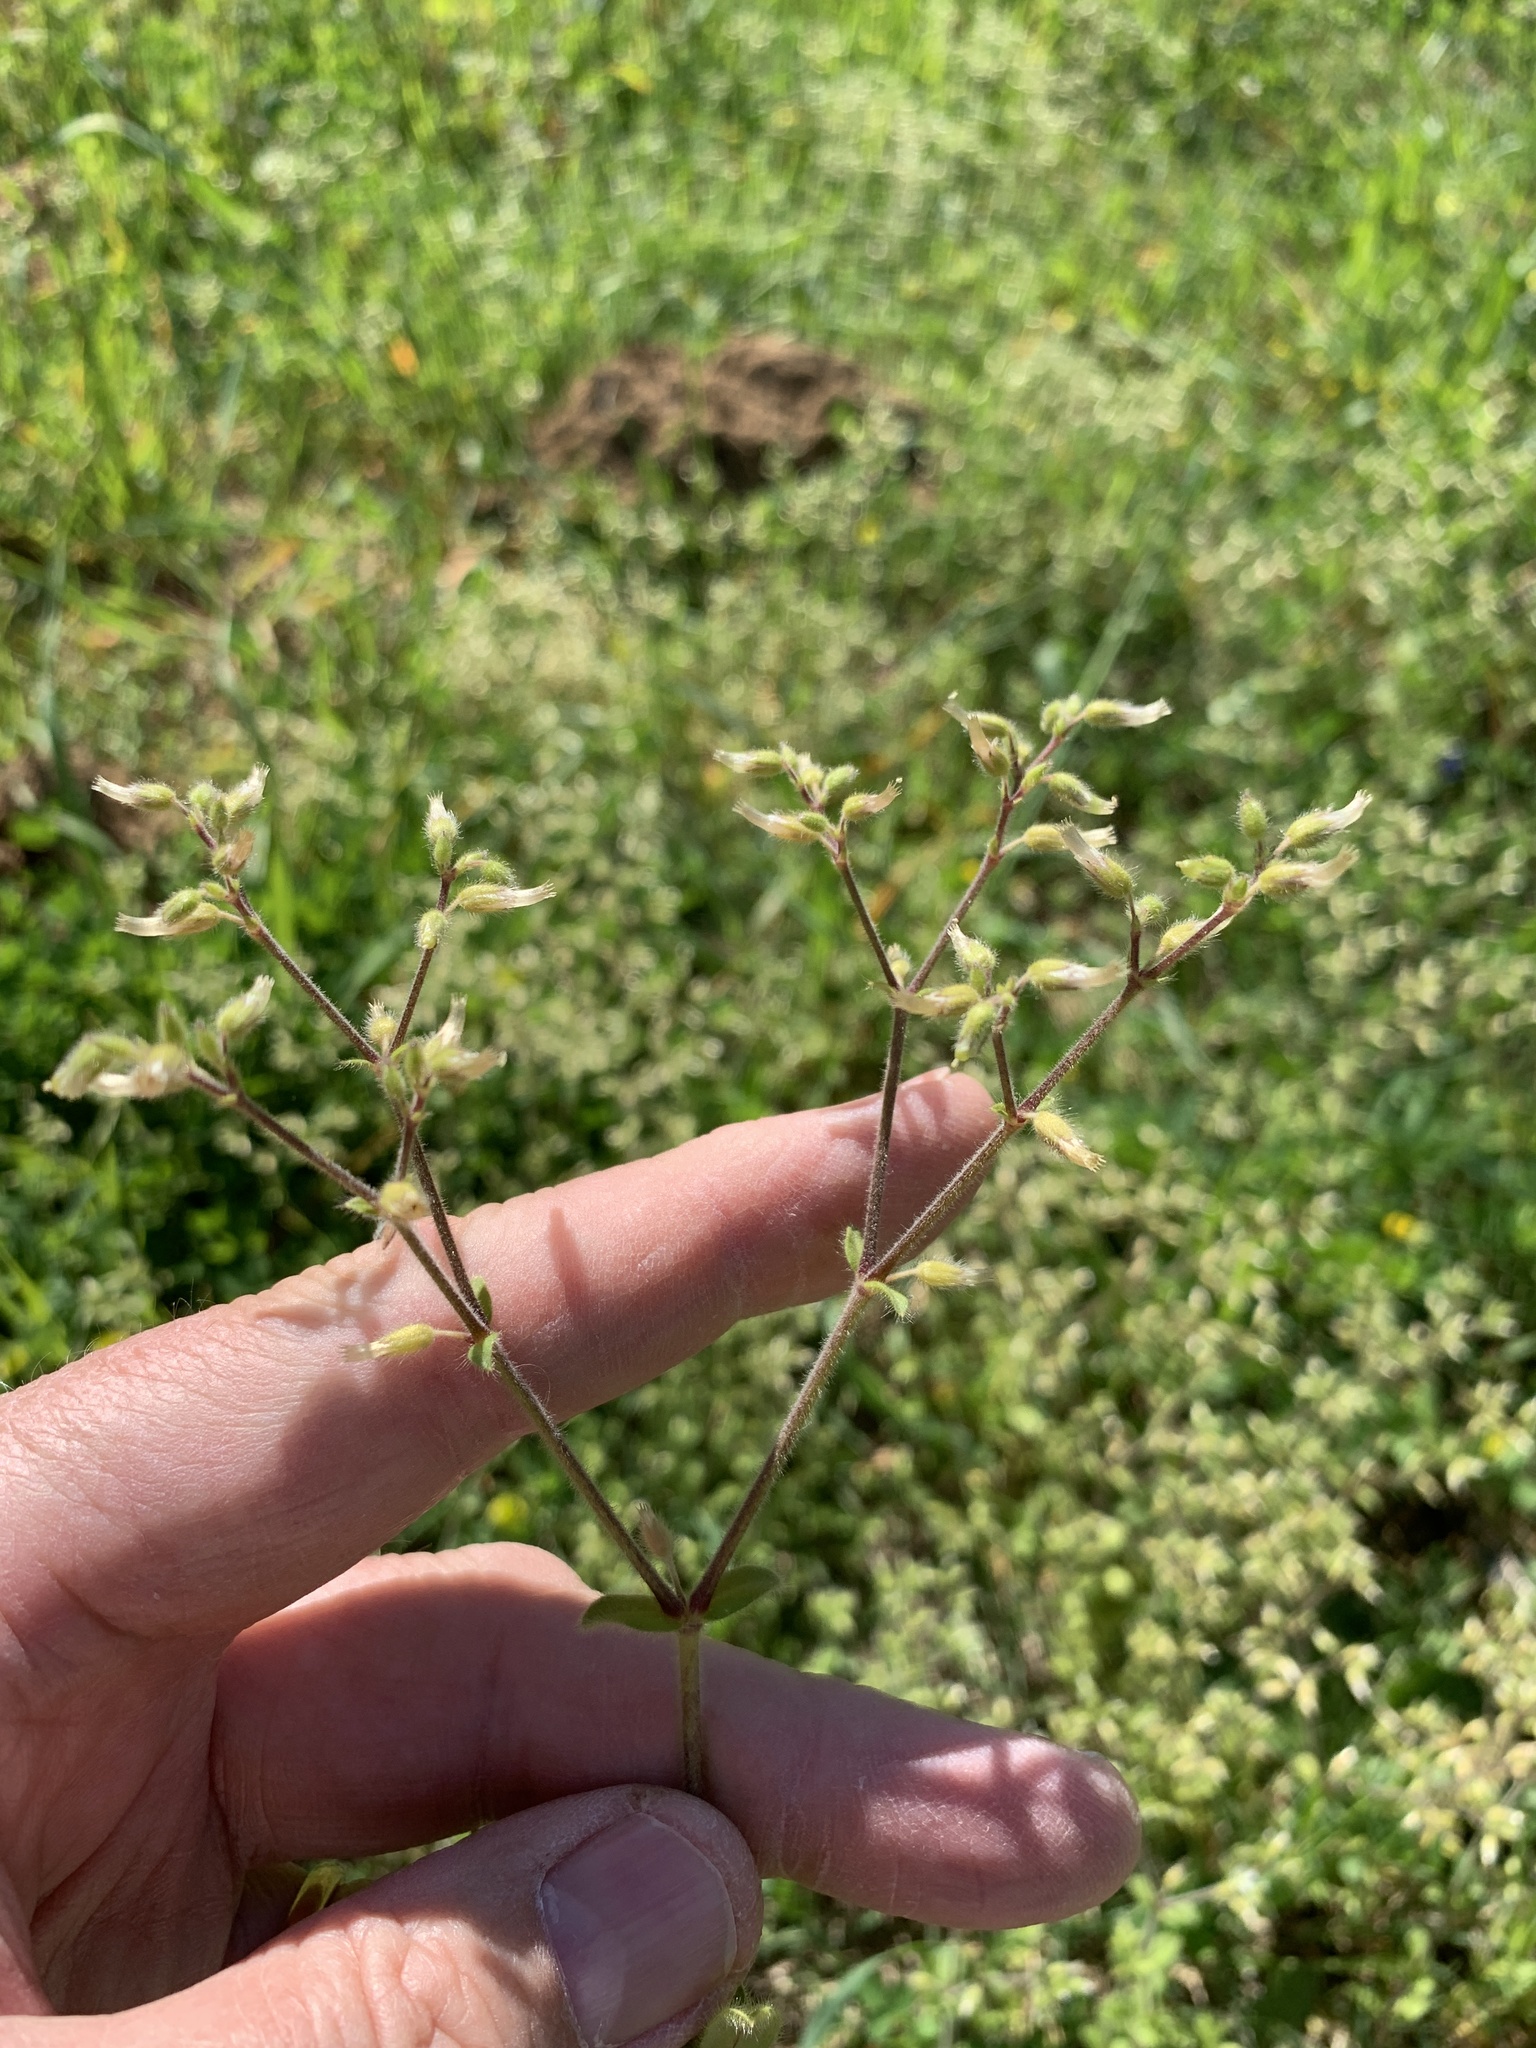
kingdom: Plantae
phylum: Tracheophyta
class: Magnoliopsida
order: Caryophyllales
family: Caryophyllaceae
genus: Cerastium
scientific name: Cerastium glomeratum
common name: Sticky chickweed
